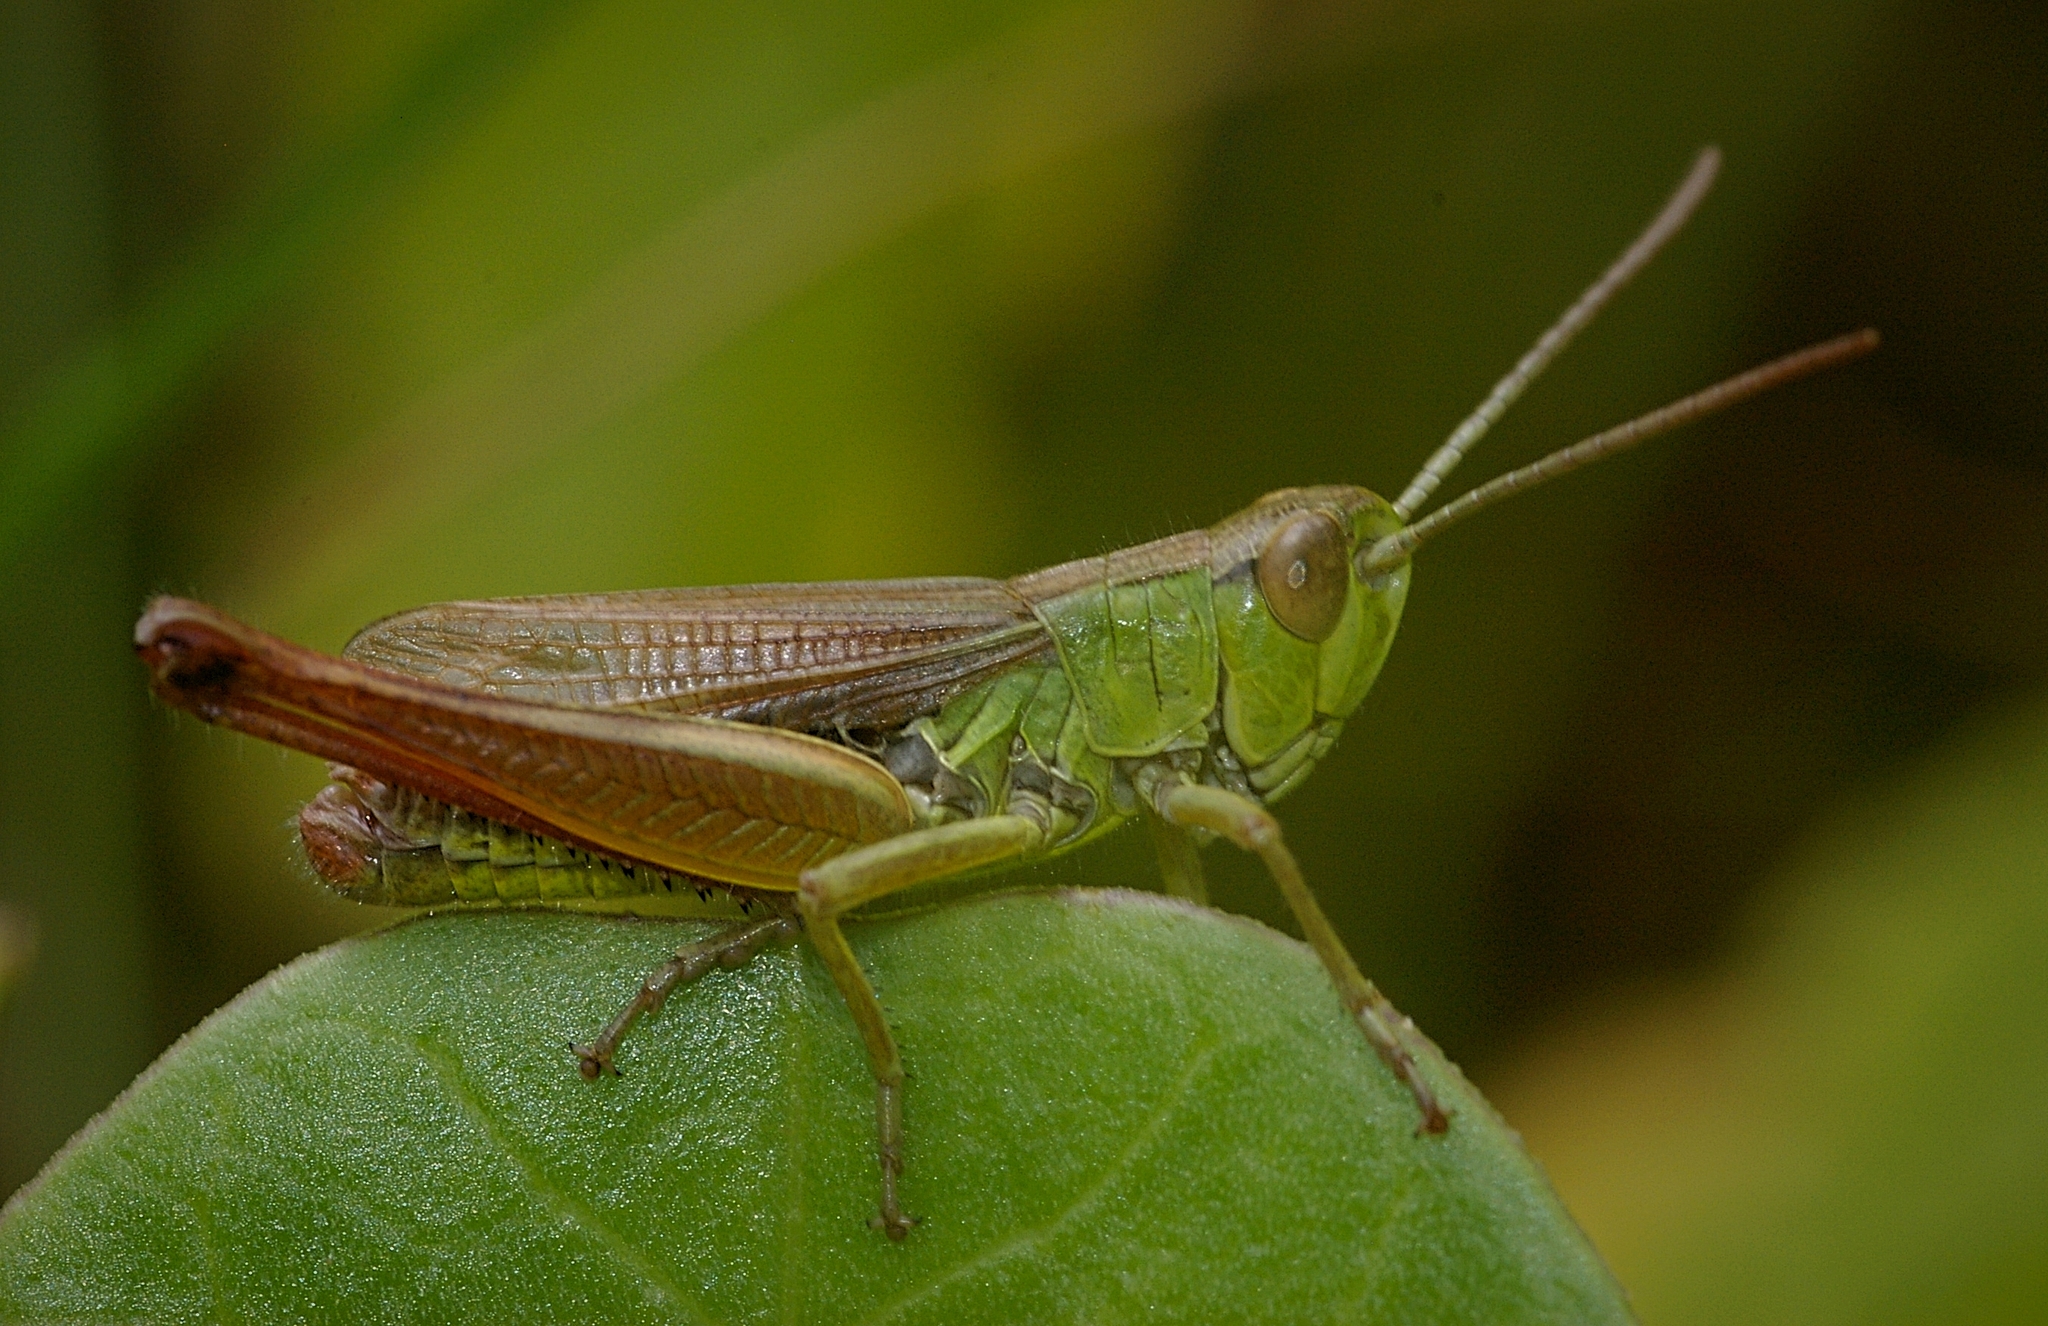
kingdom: Animalia
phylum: Arthropoda
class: Insecta
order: Orthoptera
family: Acrididae
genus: Pseudochorthippus
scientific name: Pseudochorthippus parallelus
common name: Meadow grasshopper
